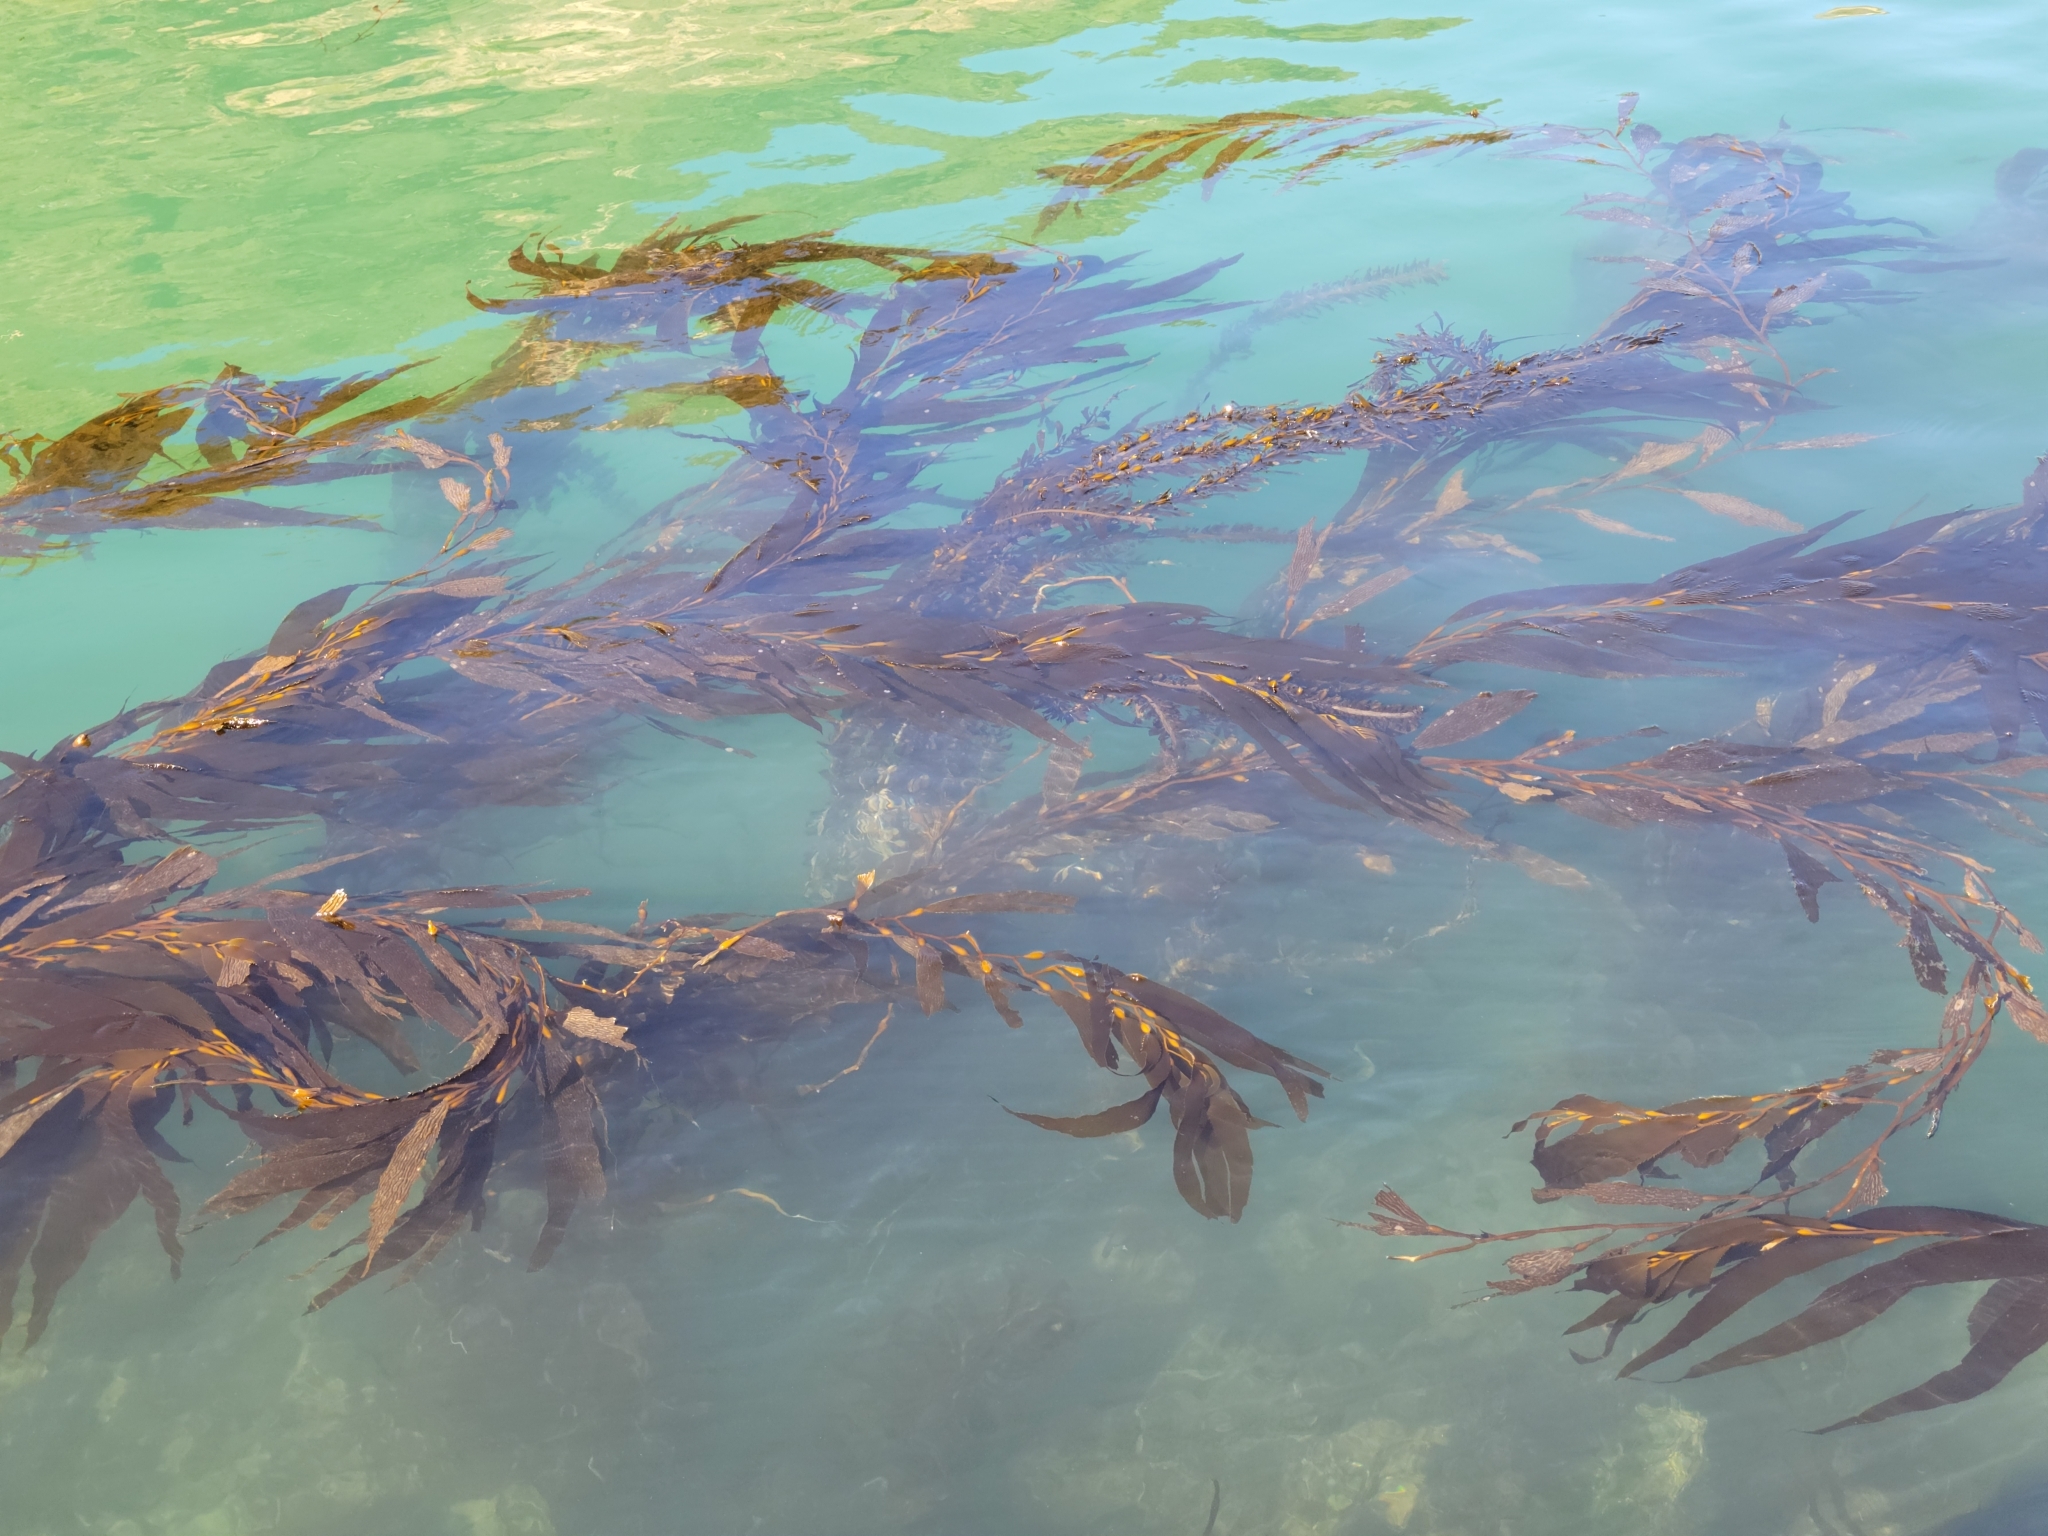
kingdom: Chromista
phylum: Ochrophyta
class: Phaeophyceae
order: Laminariales
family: Laminariaceae
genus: Macrocystis
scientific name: Macrocystis pyrifera
